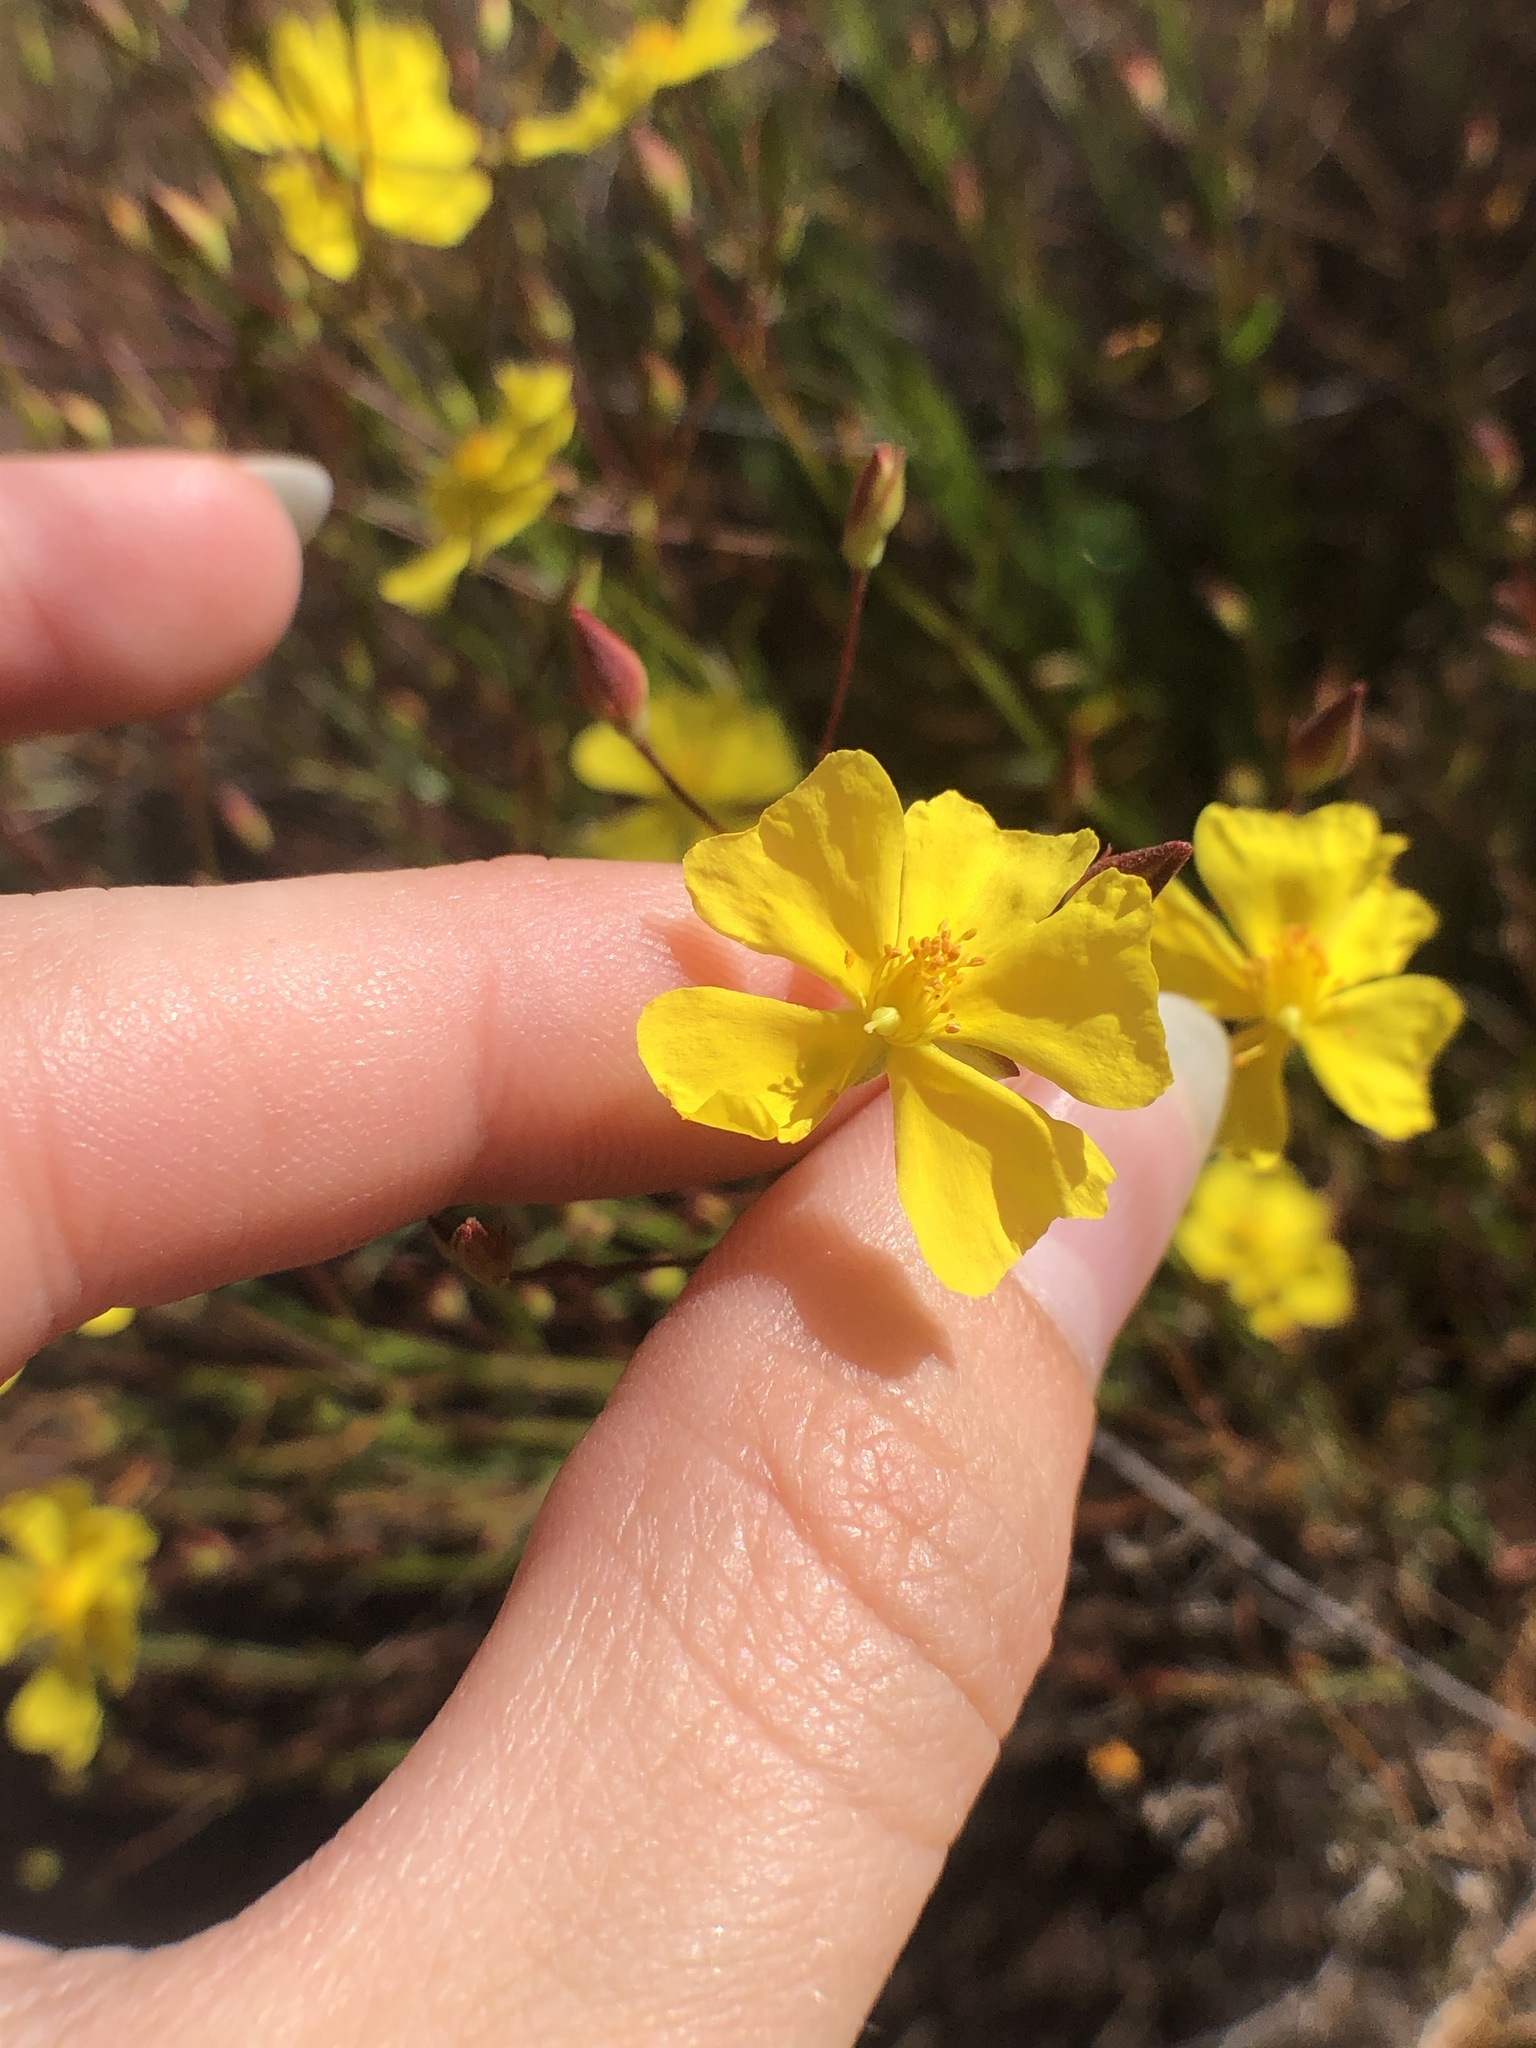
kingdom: Plantae
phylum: Tracheophyta
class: Magnoliopsida
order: Malvales
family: Cistaceae
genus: Crocanthemum
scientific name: Crocanthemum scoparium
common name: Broom-rose
